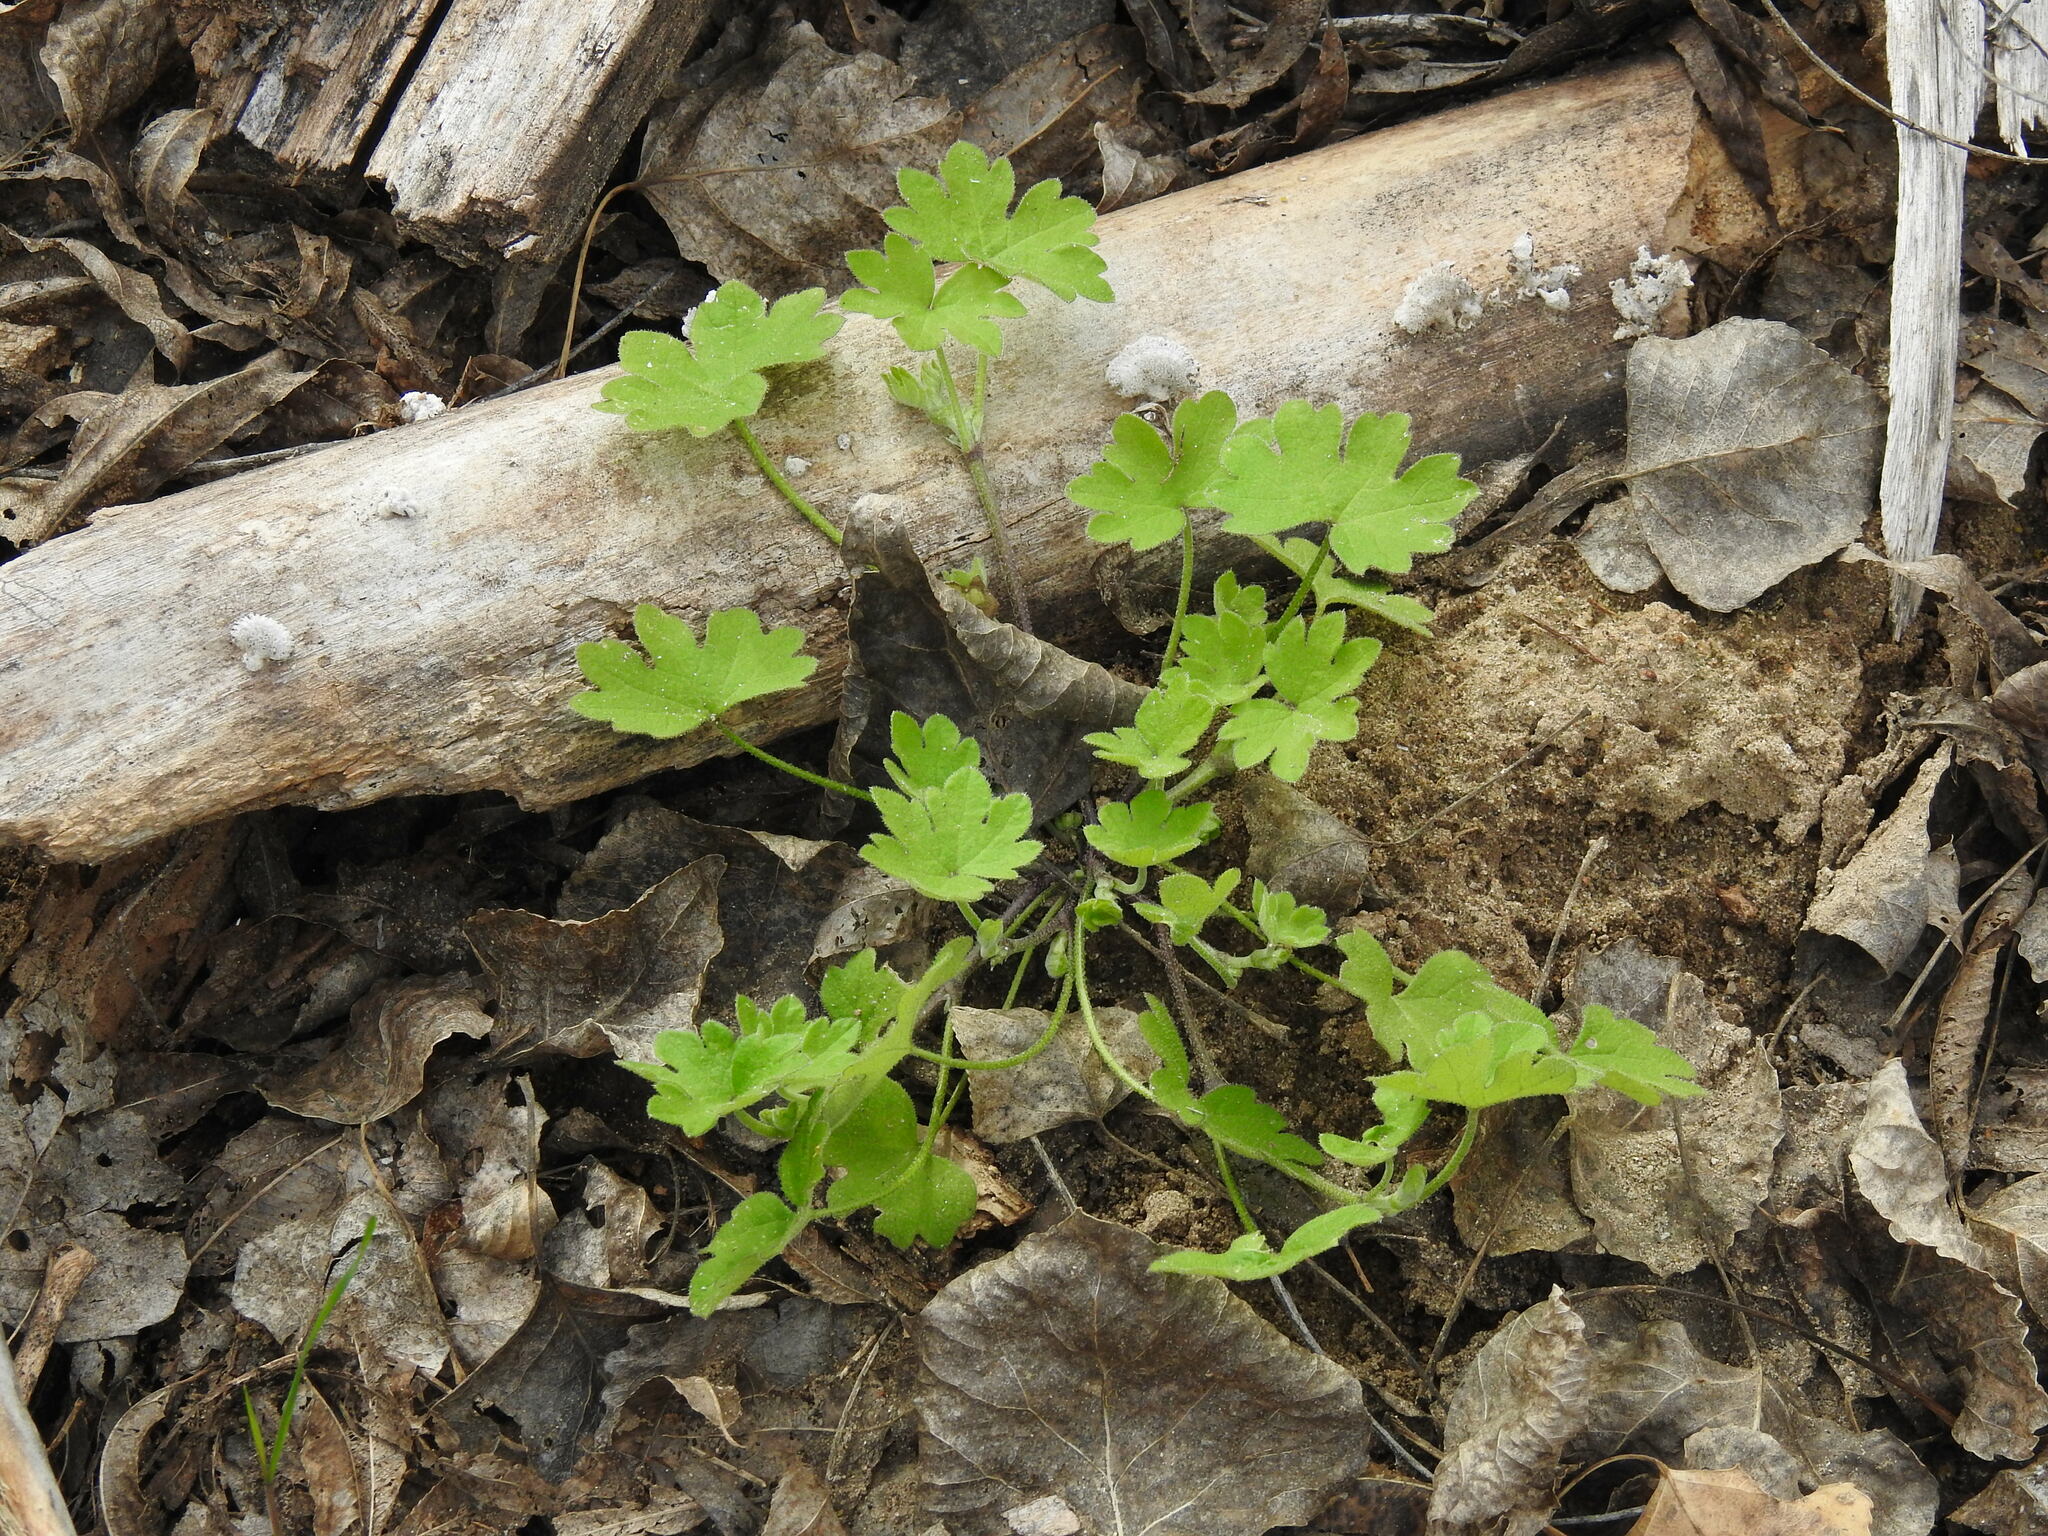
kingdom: Plantae
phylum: Tracheophyta
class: Magnoliopsida
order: Apiales
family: Apiaceae
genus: Bowlesia
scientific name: Bowlesia incana
